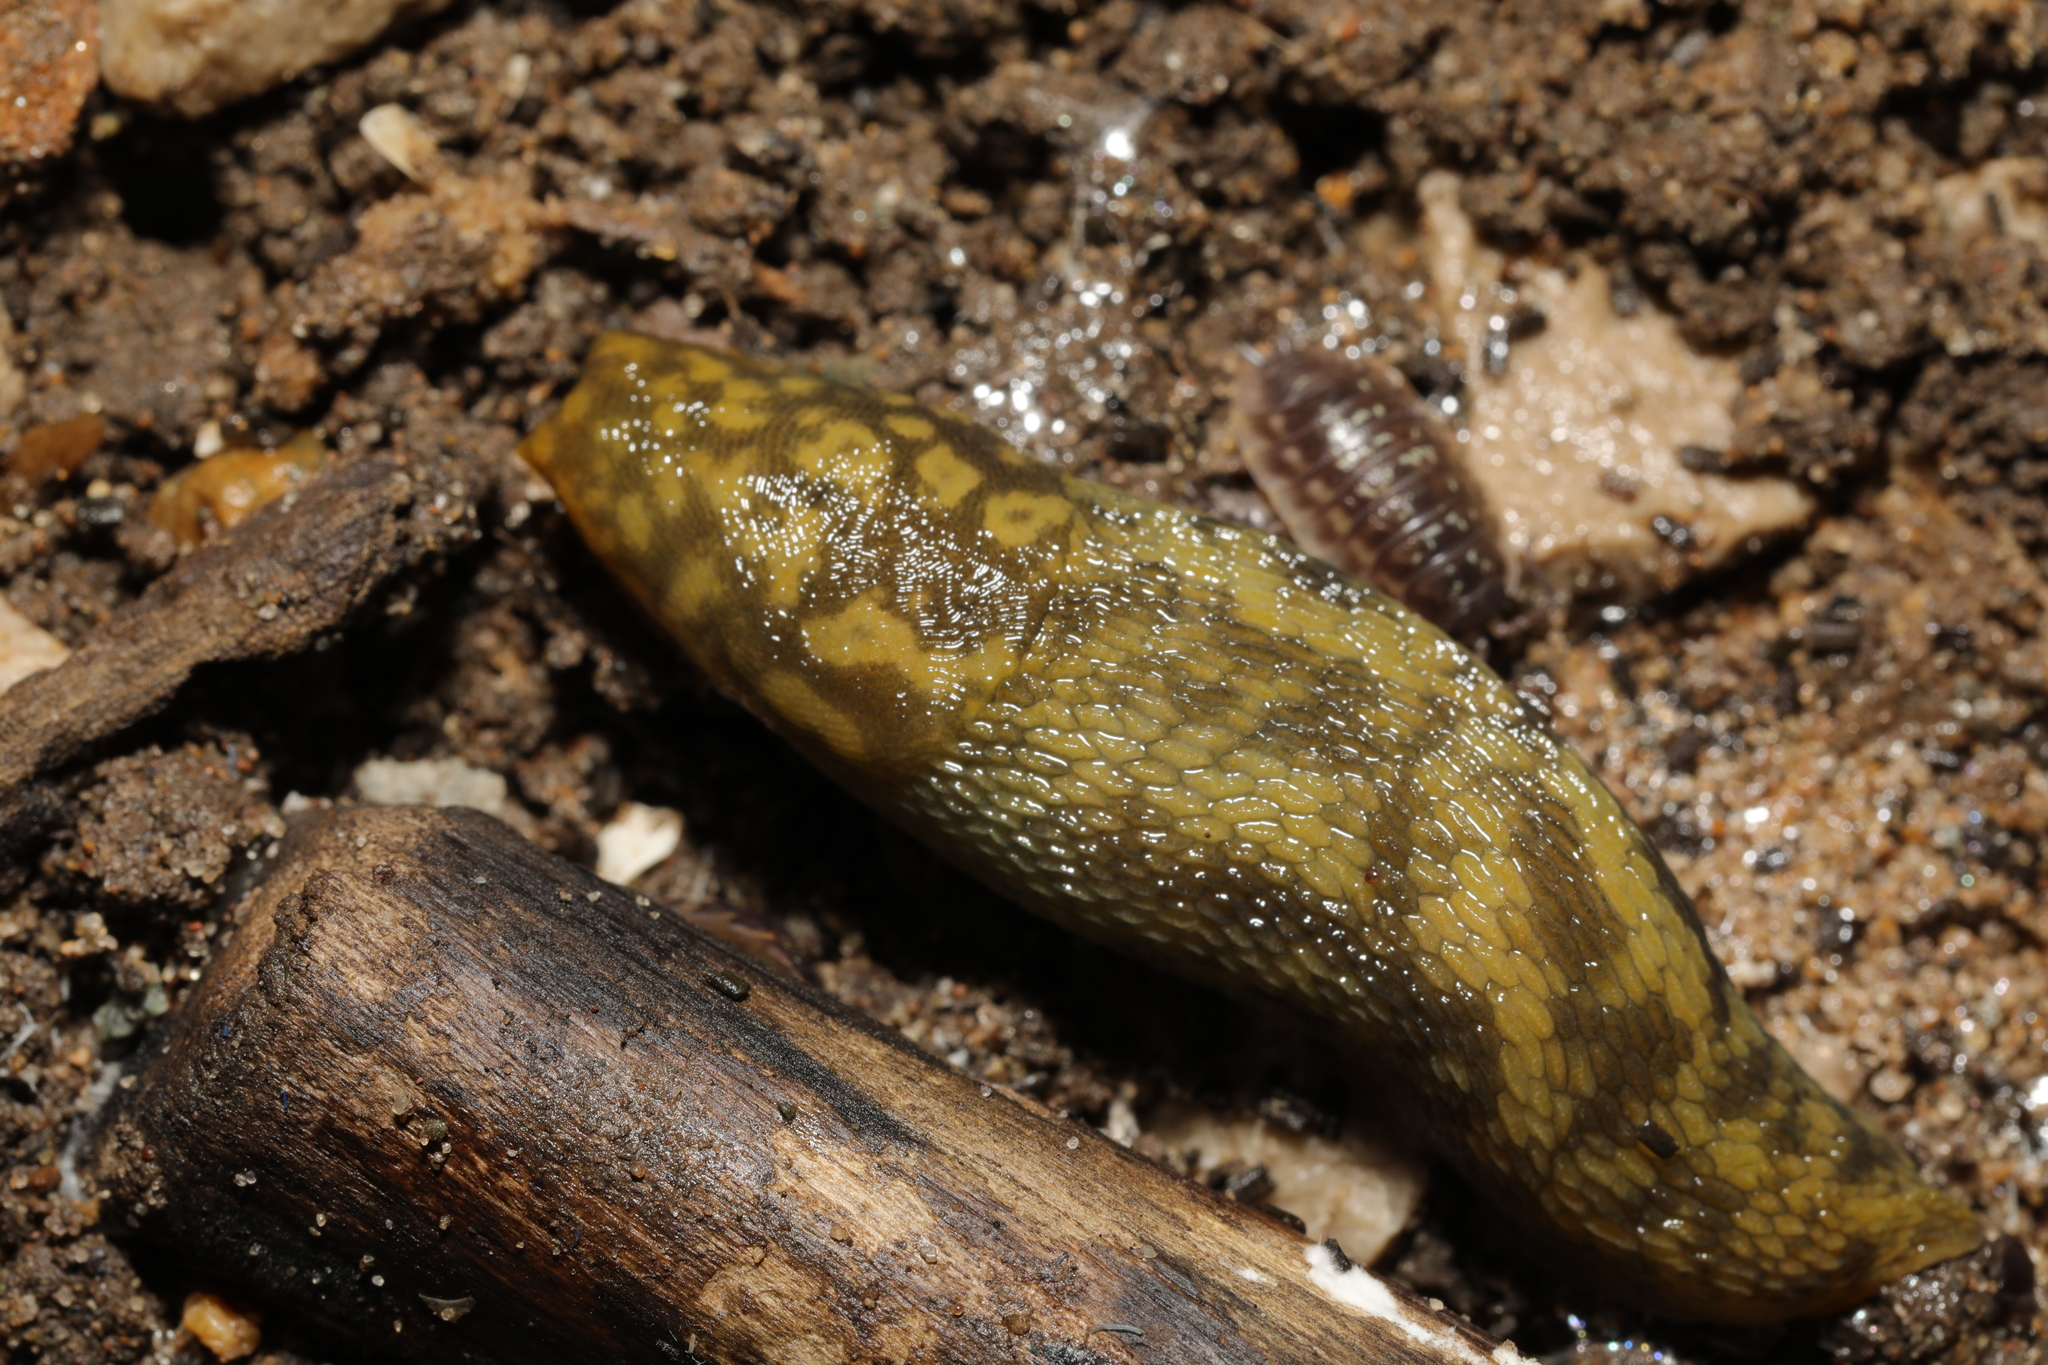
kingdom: Animalia
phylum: Mollusca
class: Gastropoda
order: Stylommatophora
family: Limacidae
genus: Limacus
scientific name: Limacus maculatus
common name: Irish yellow slug
